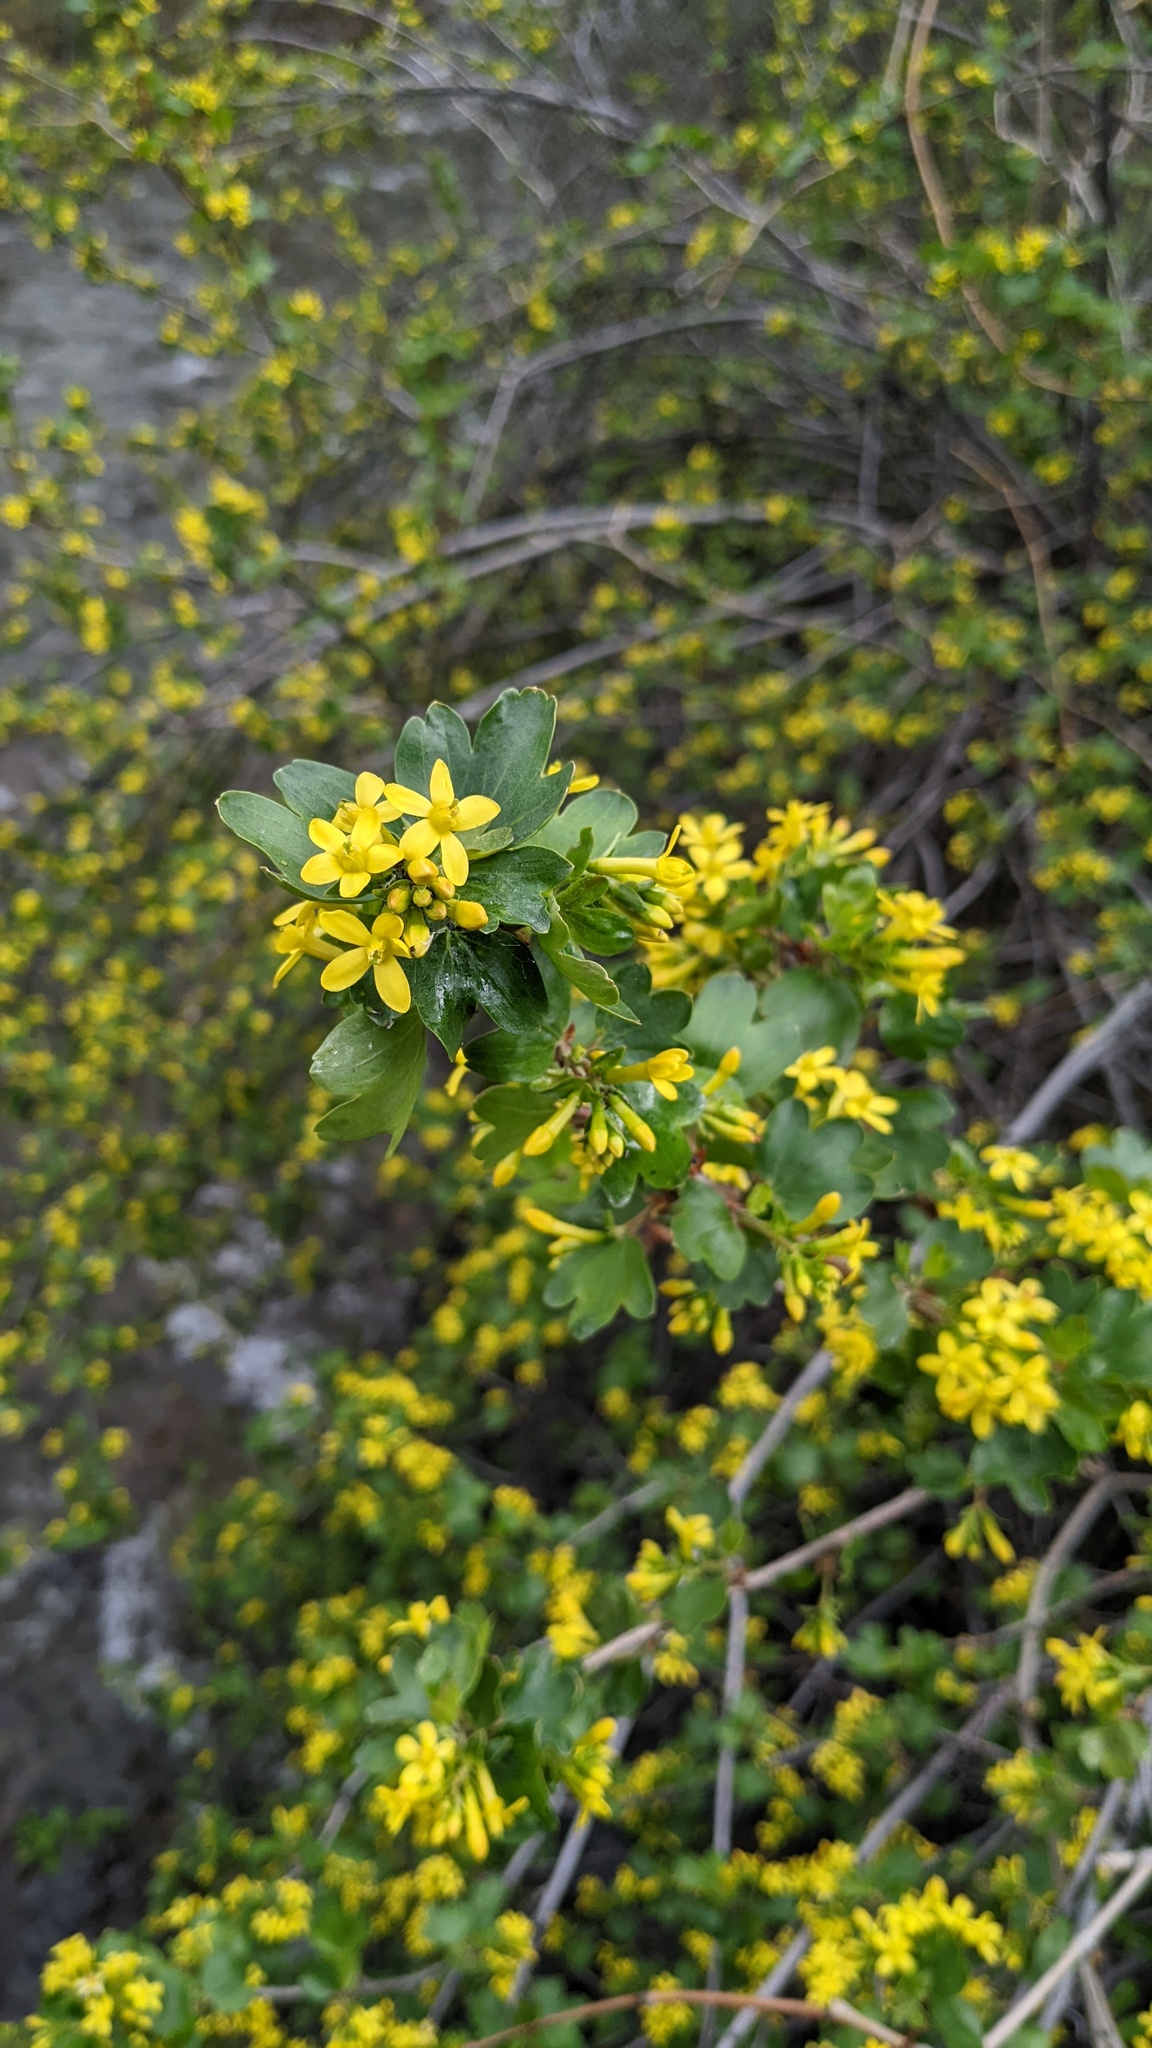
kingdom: Plantae
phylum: Tracheophyta
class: Magnoliopsida
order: Saxifragales
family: Grossulariaceae
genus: Ribes
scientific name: Ribes aureum
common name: Golden currant
